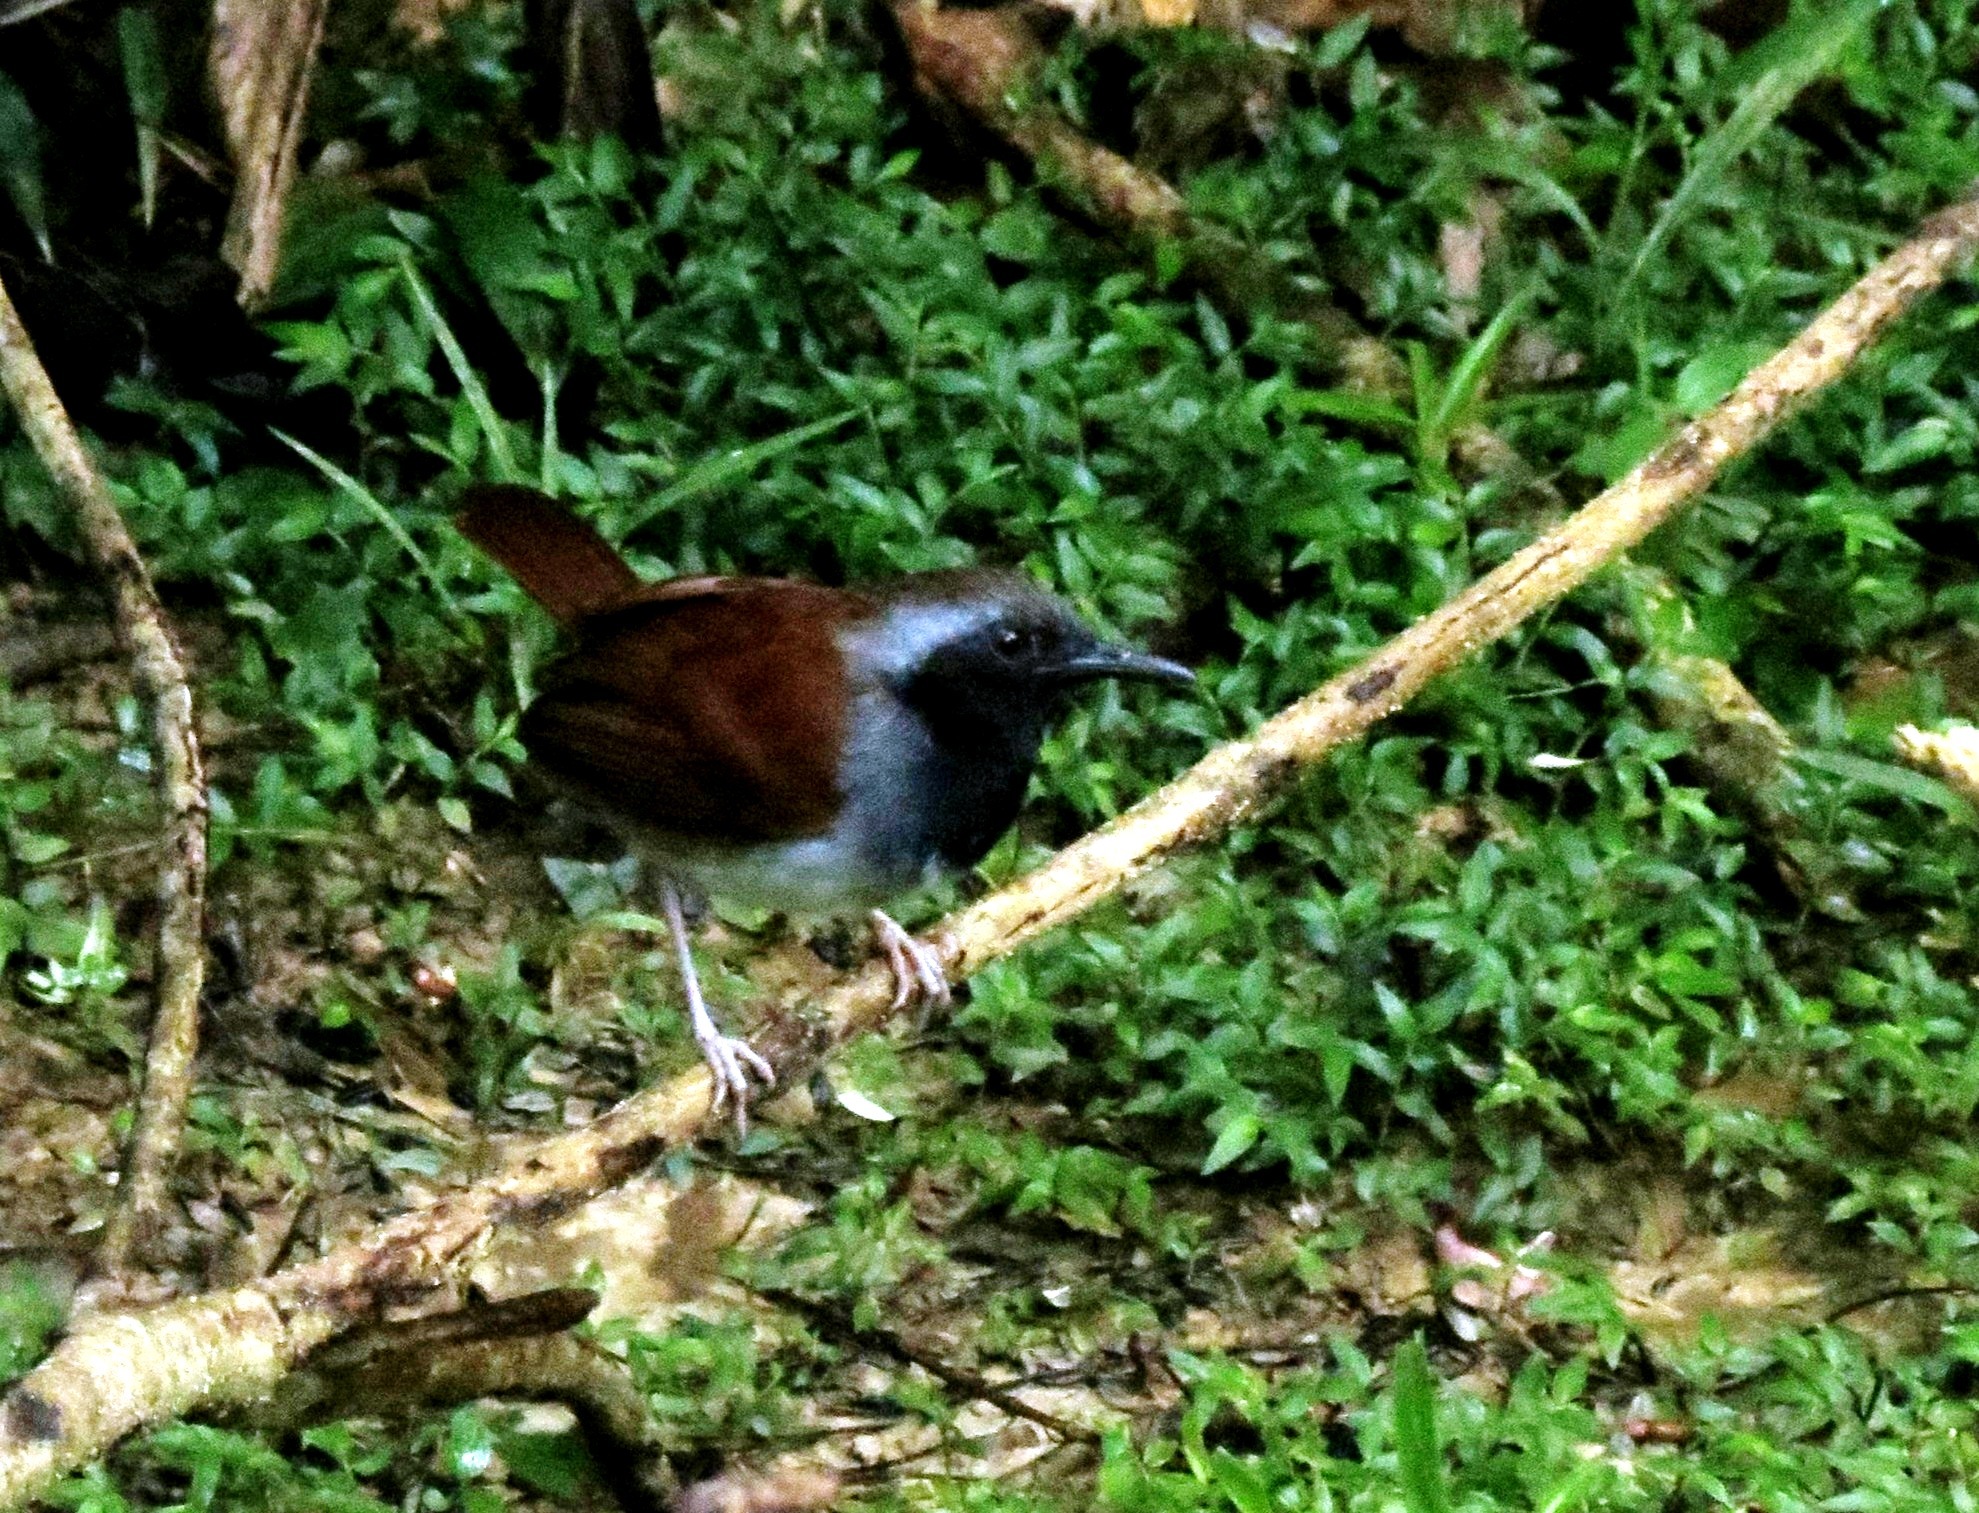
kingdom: Animalia
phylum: Chordata
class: Aves
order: Passeriformes
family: Thamnophilidae
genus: Myrmeciza
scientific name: Myrmeciza longipes
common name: White-bellied antbird
